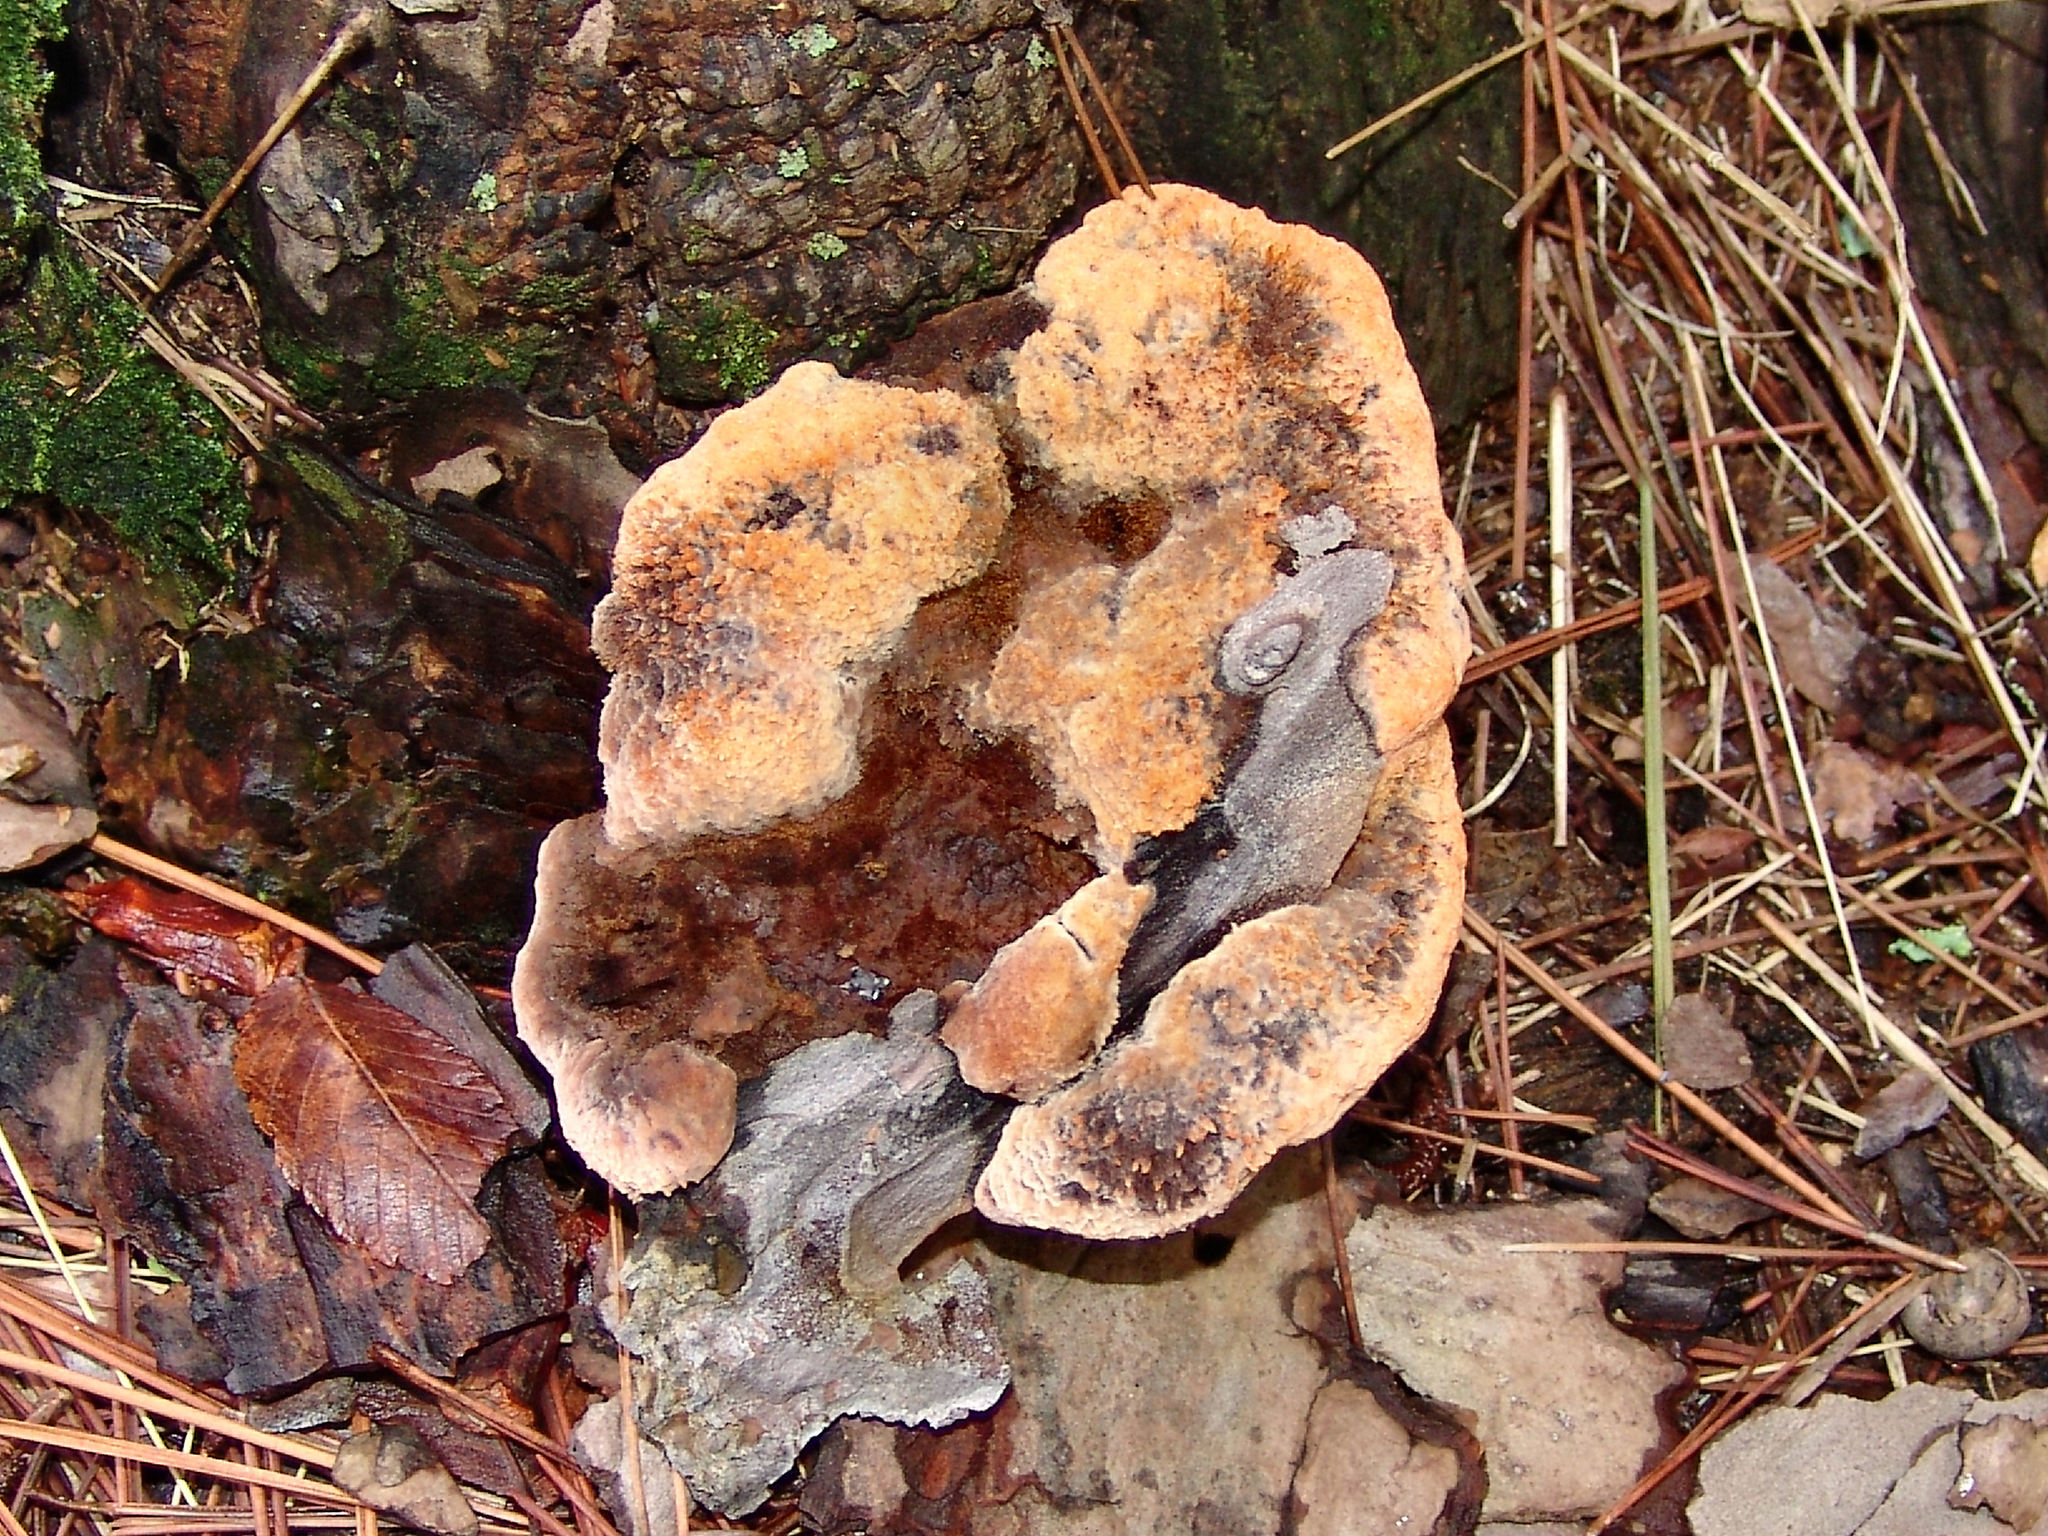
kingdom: Fungi
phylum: Basidiomycota
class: Agaricomycetes
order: Polyporales
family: Laetiporaceae
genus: Phaeolus
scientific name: Phaeolus schweinitzii
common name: Dyer's mazegill
